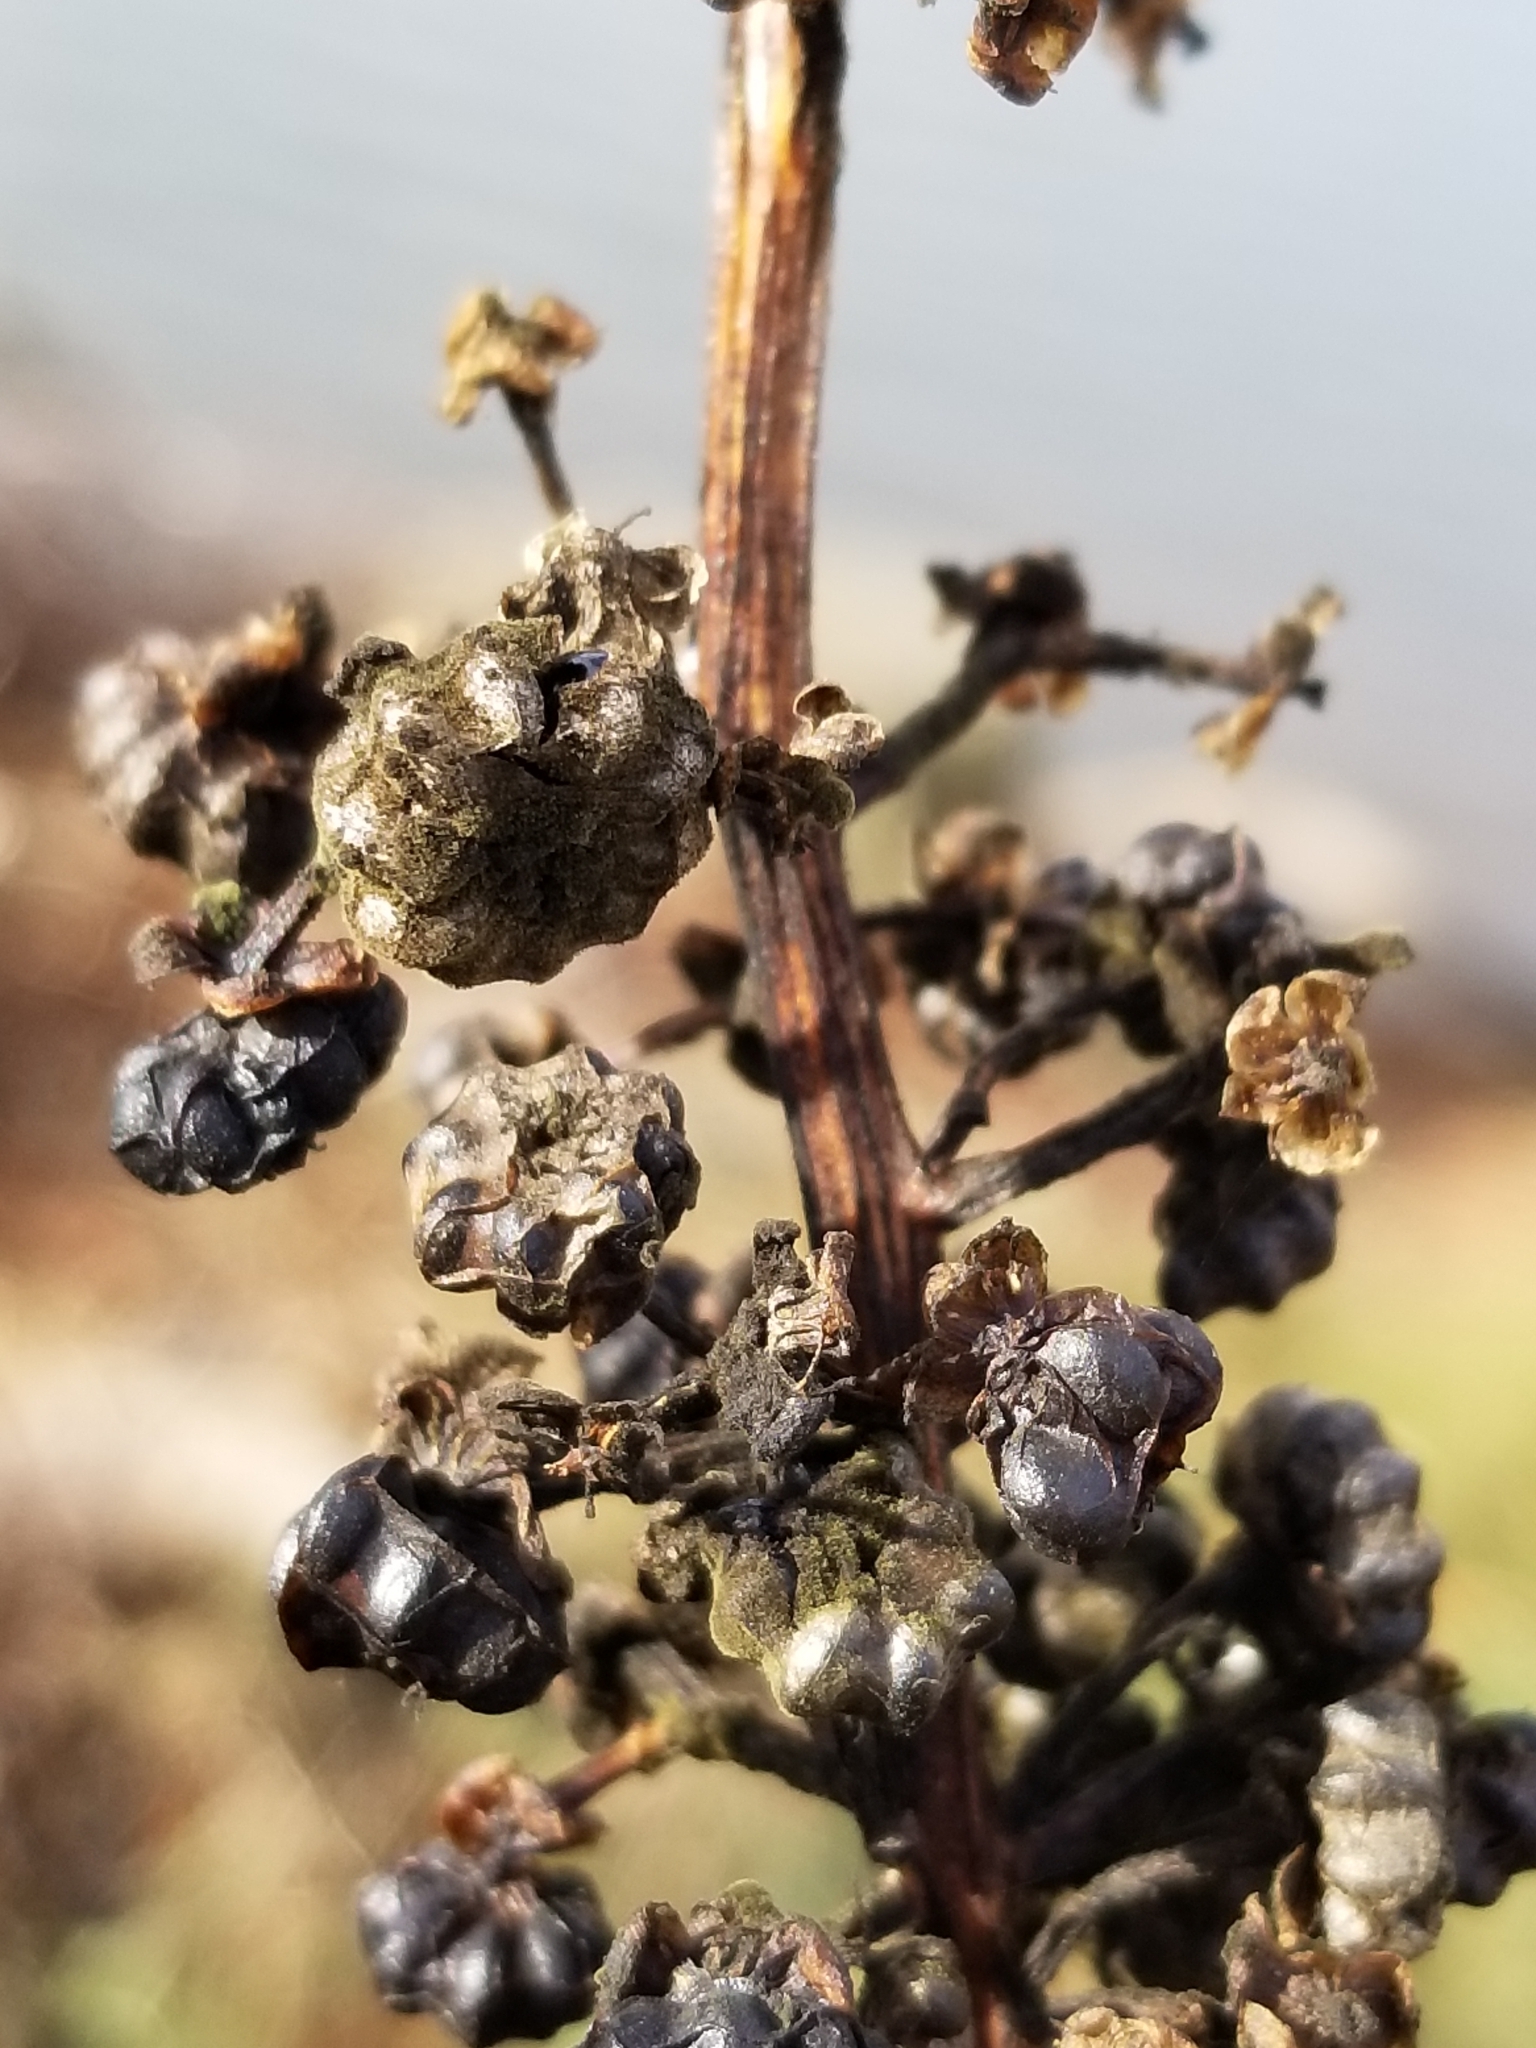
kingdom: Plantae
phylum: Tracheophyta
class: Magnoliopsida
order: Caryophyllales
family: Phytolaccaceae
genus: Phytolacca
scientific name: Phytolacca americana
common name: American pokeweed
